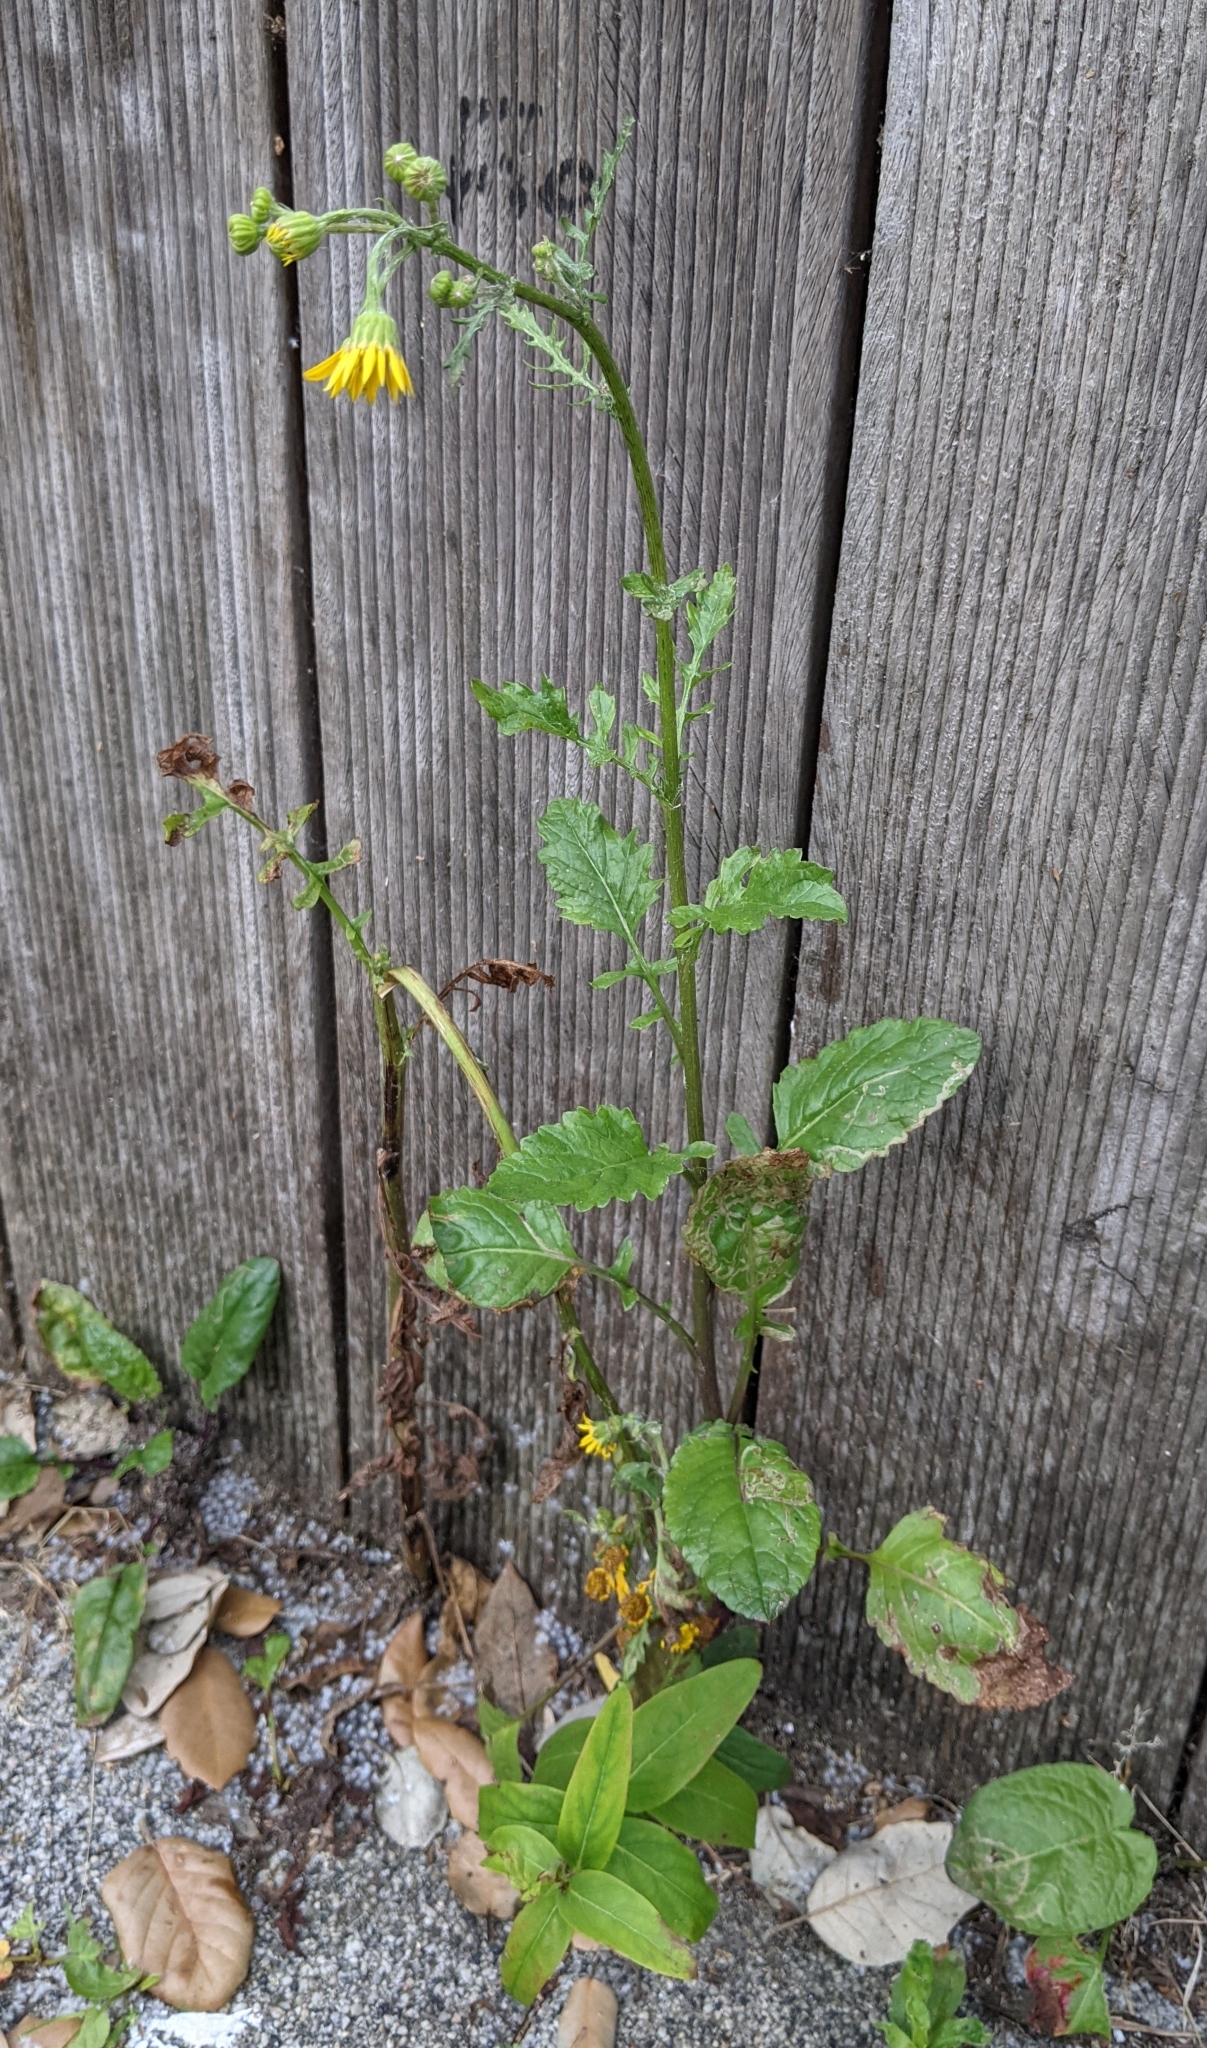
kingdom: Plantae
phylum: Tracheophyta
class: Magnoliopsida
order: Asterales
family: Asteraceae
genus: Jacobaea
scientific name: Jacobaea aquatica
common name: Water ragwort
